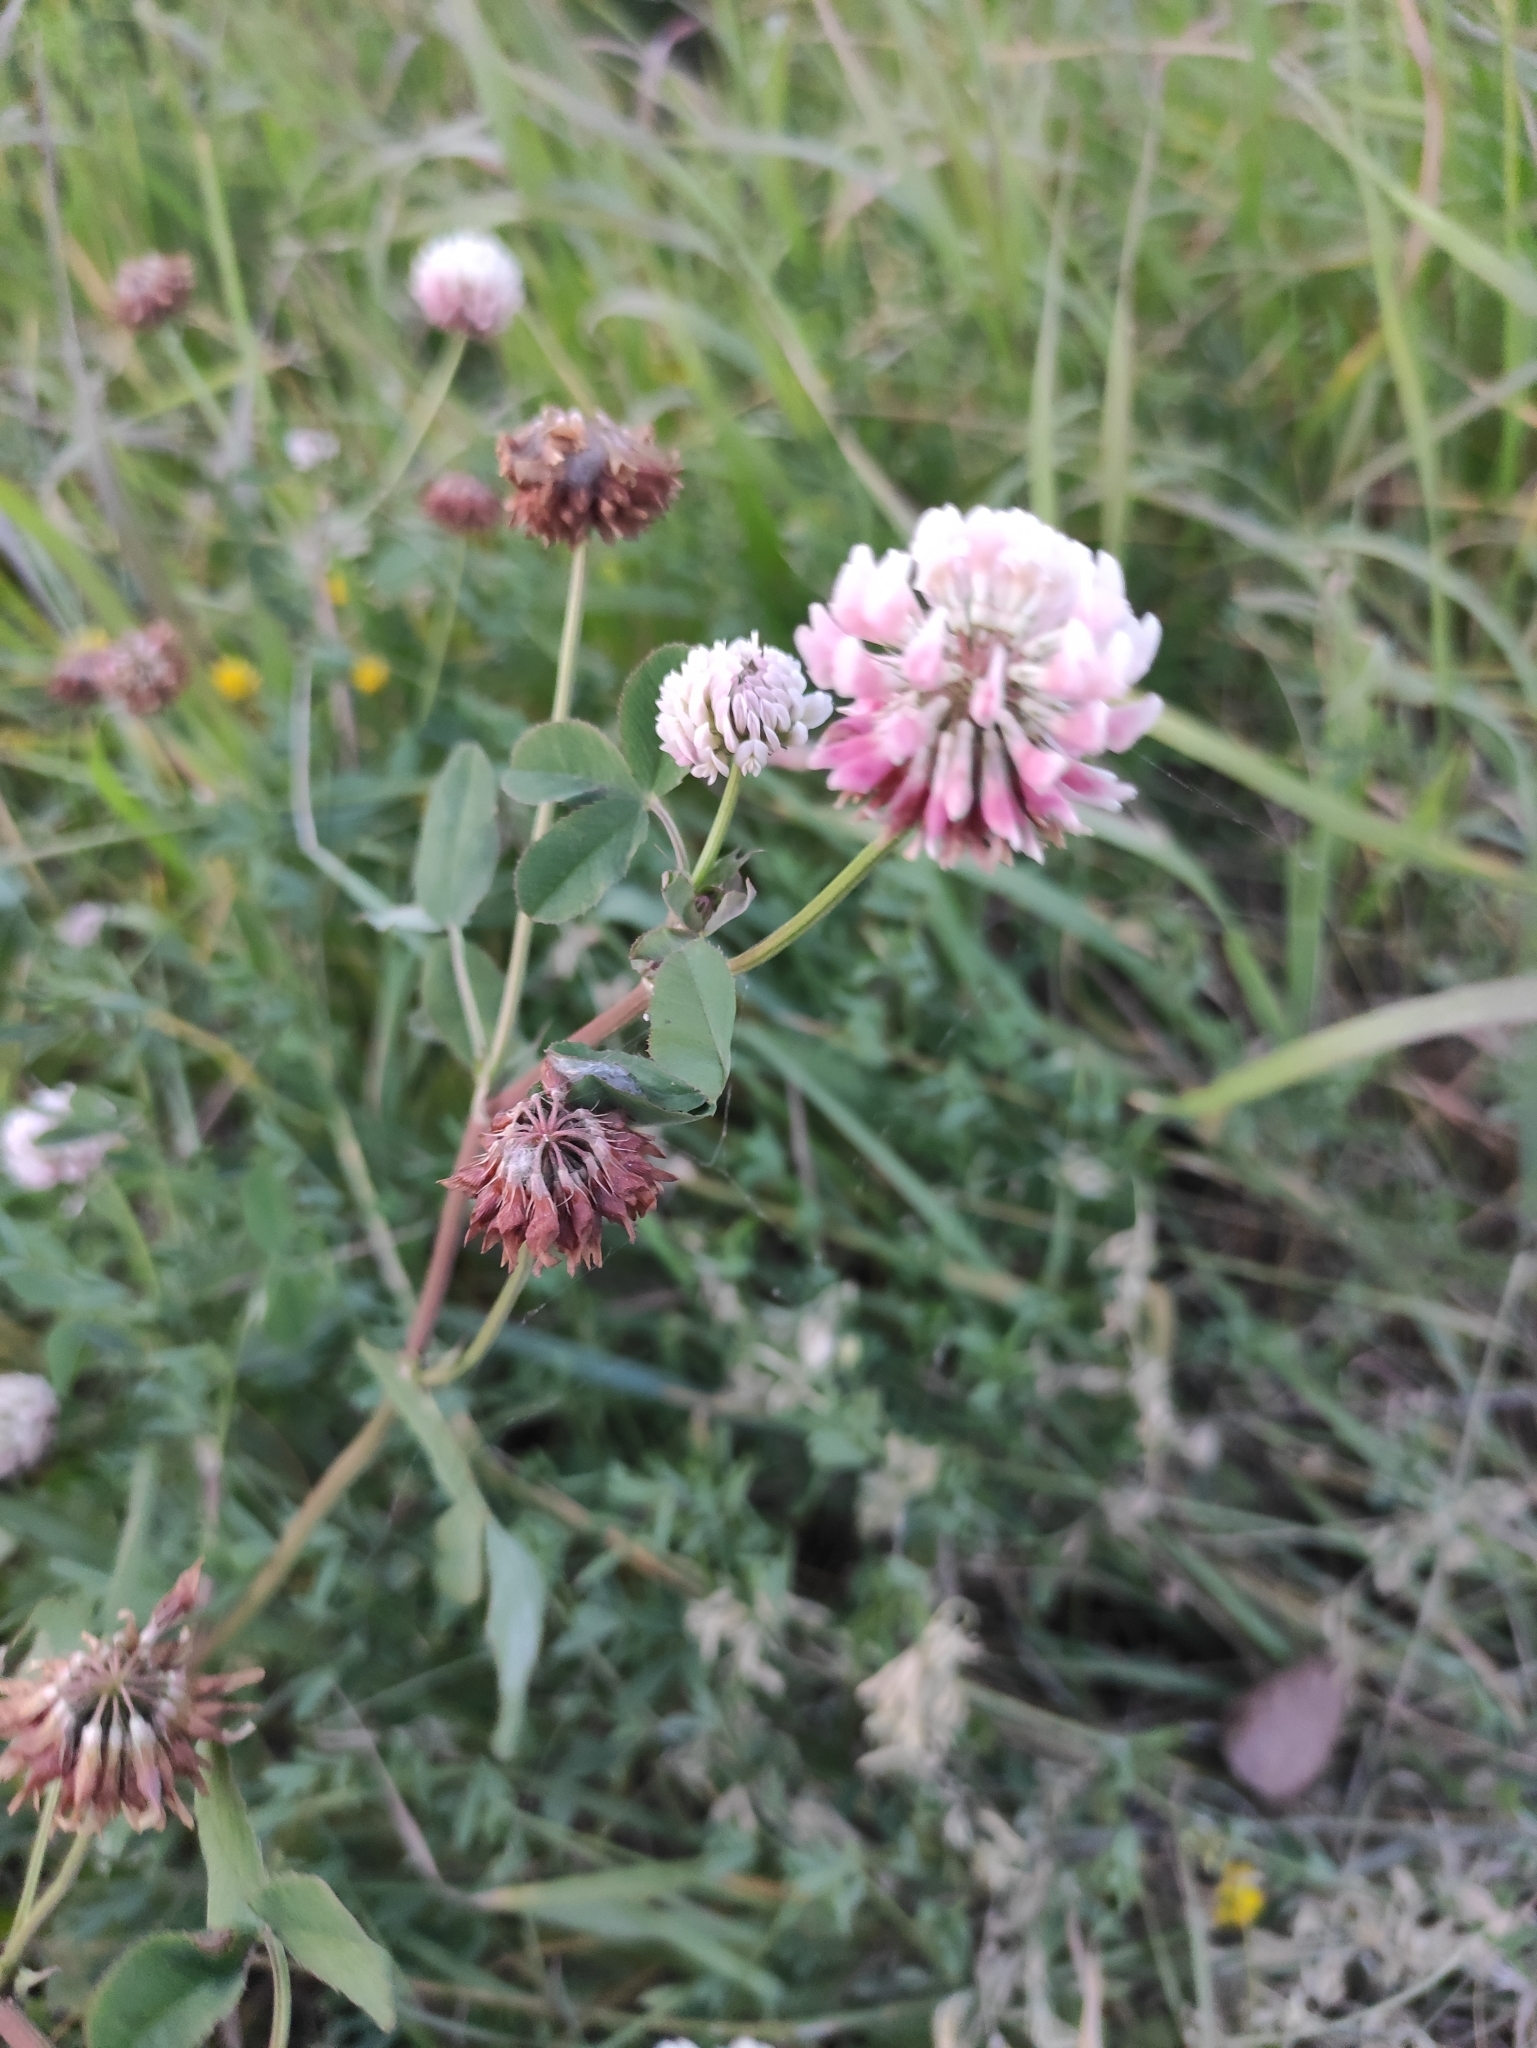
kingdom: Plantae
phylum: Tracheophyta
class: Magnoliopsida
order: Fabales
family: Fabaceae
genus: Trifolium
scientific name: Trifolium hybridum
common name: Alsike clover
